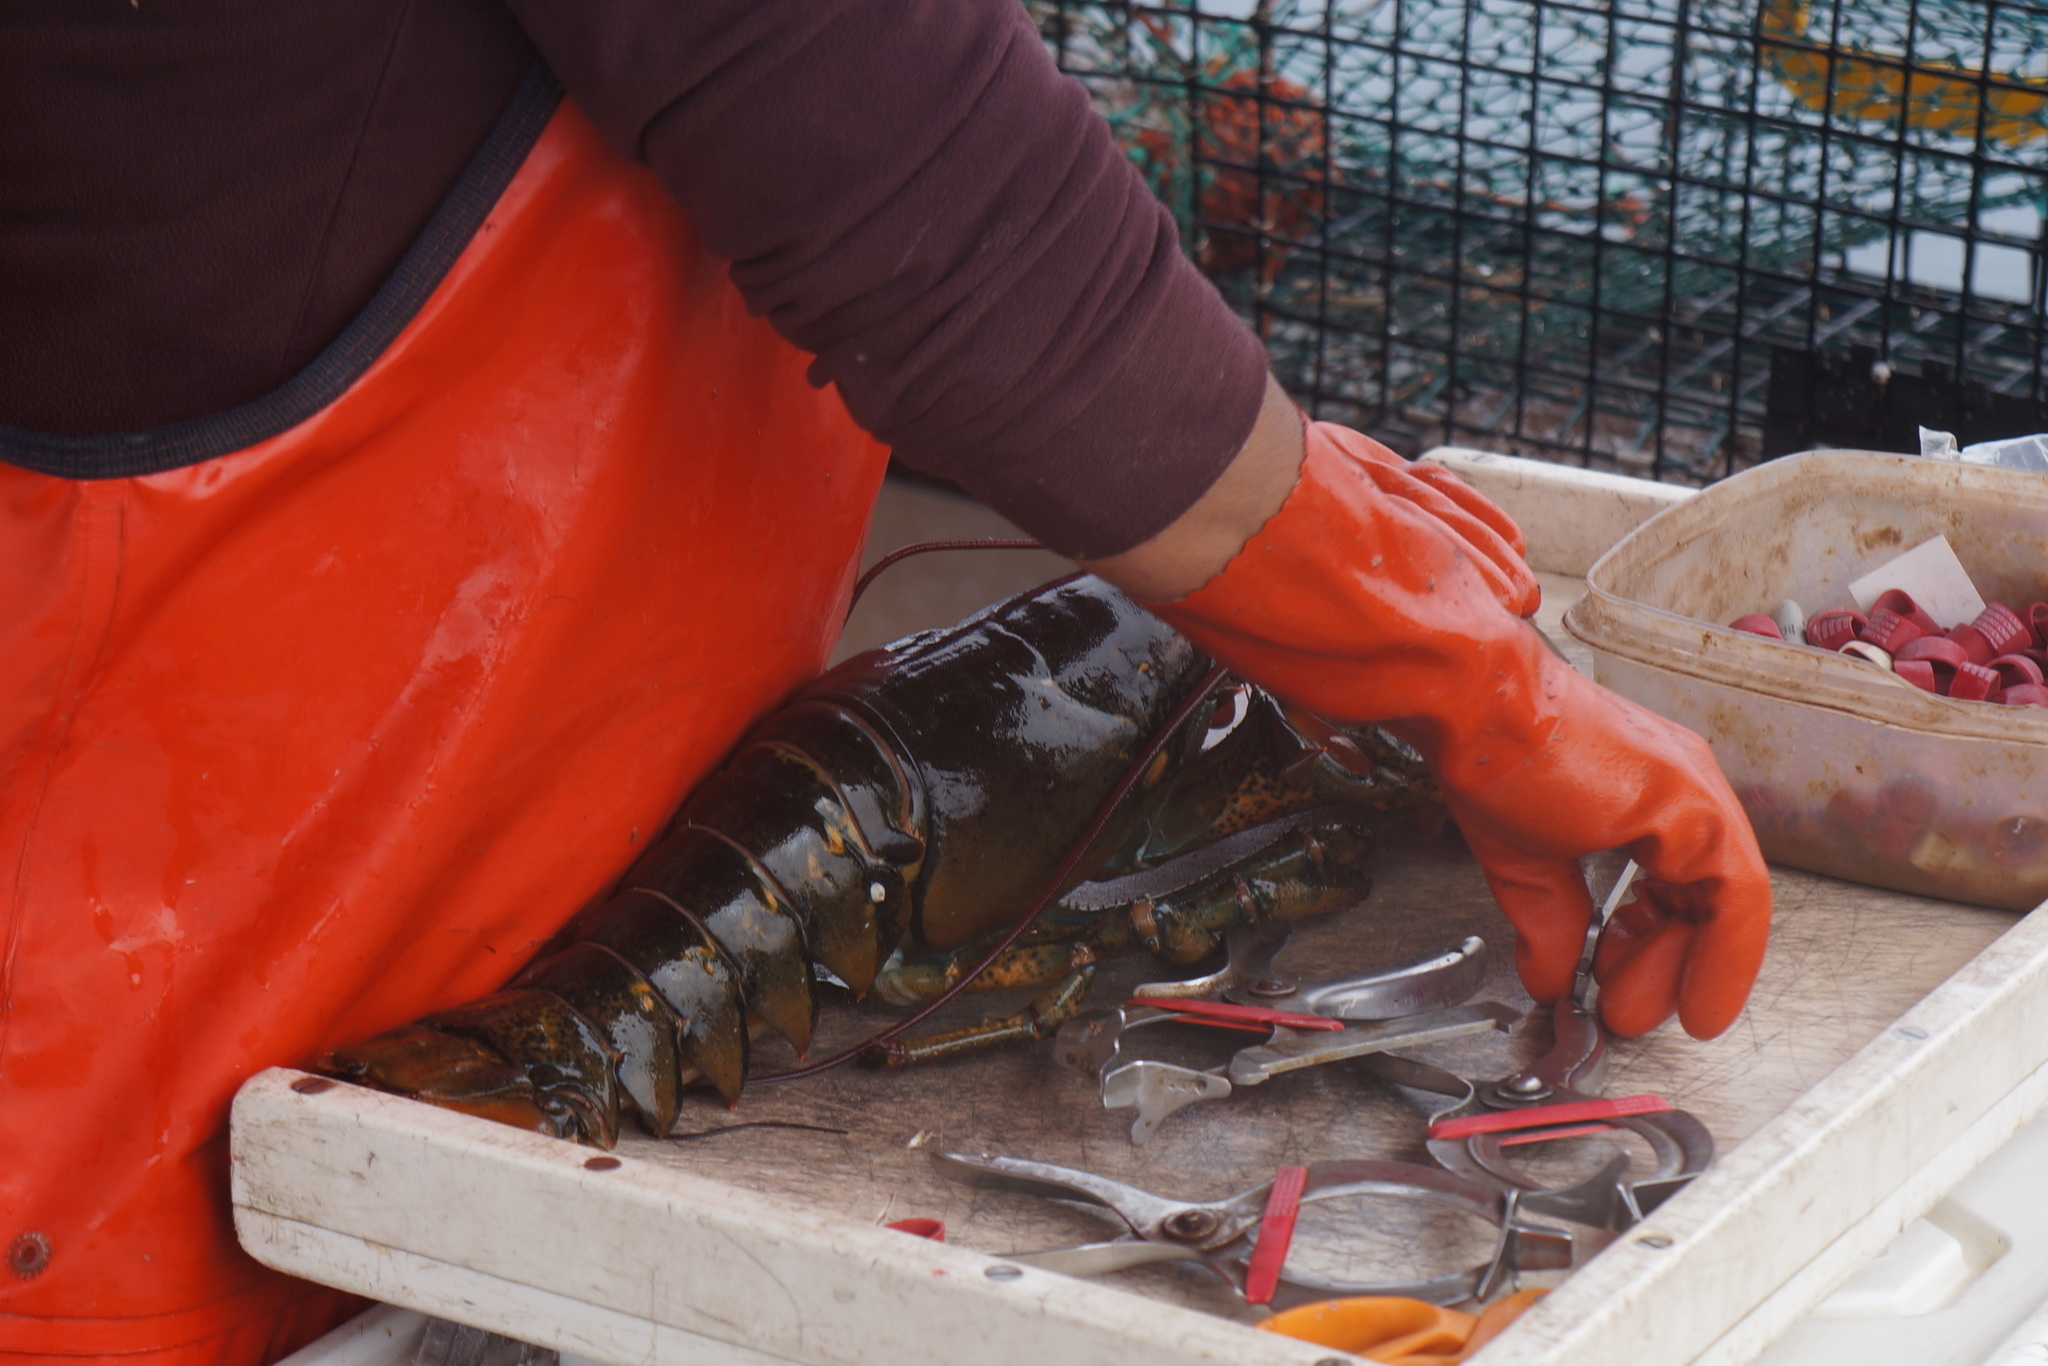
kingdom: Animalia
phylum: Arthropoda
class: Malacostraca
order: Decapoda
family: Nephropidae
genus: Homarus
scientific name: Homarus americanus
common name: American lobster
